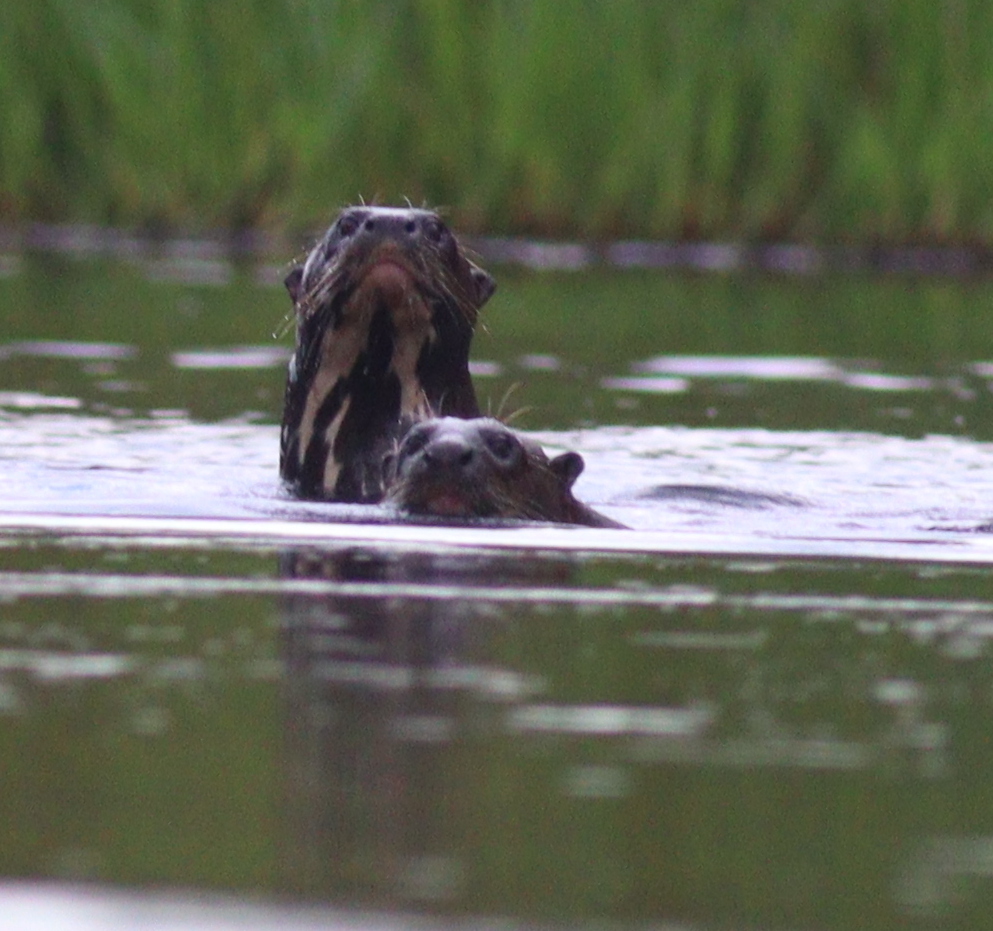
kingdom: Animalia
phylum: Chordata
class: Mammalia
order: Carnivora
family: Mustelidae
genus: Pteronura
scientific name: Pteronura brasiliensis
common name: Giant otter
